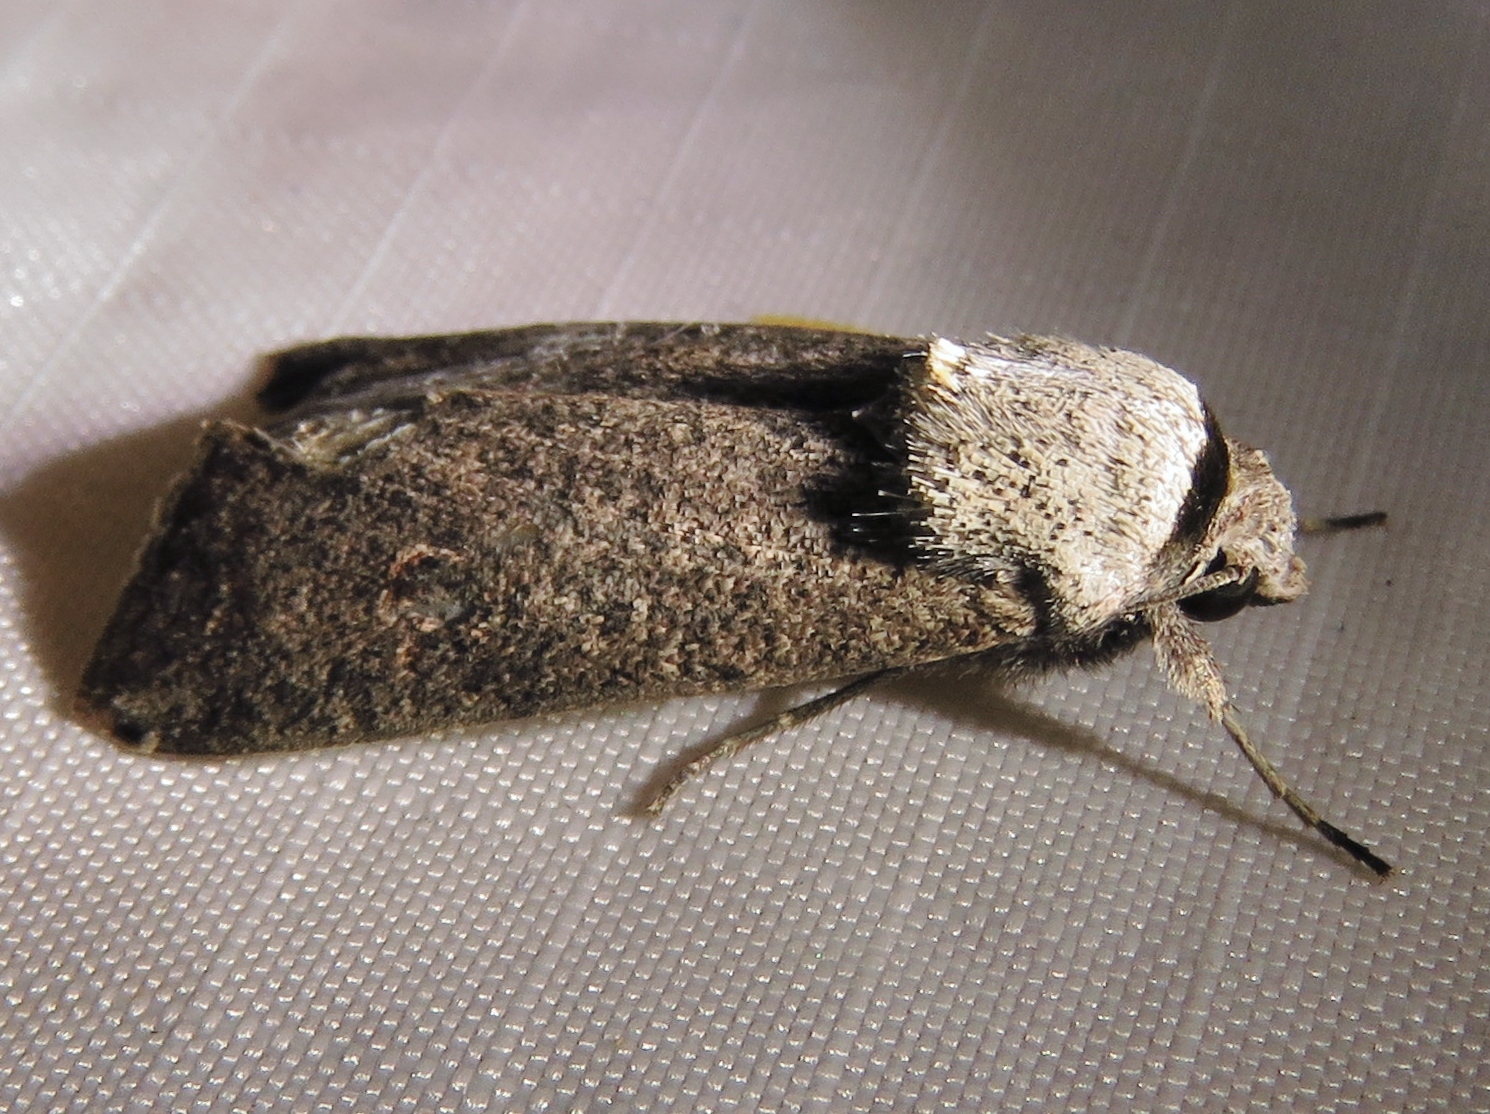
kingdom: Animalia
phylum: Arthropoda
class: Insecta
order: Lepidoptera
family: Noctuidae
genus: Anicla
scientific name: Anicla infecta
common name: Green cutworm
